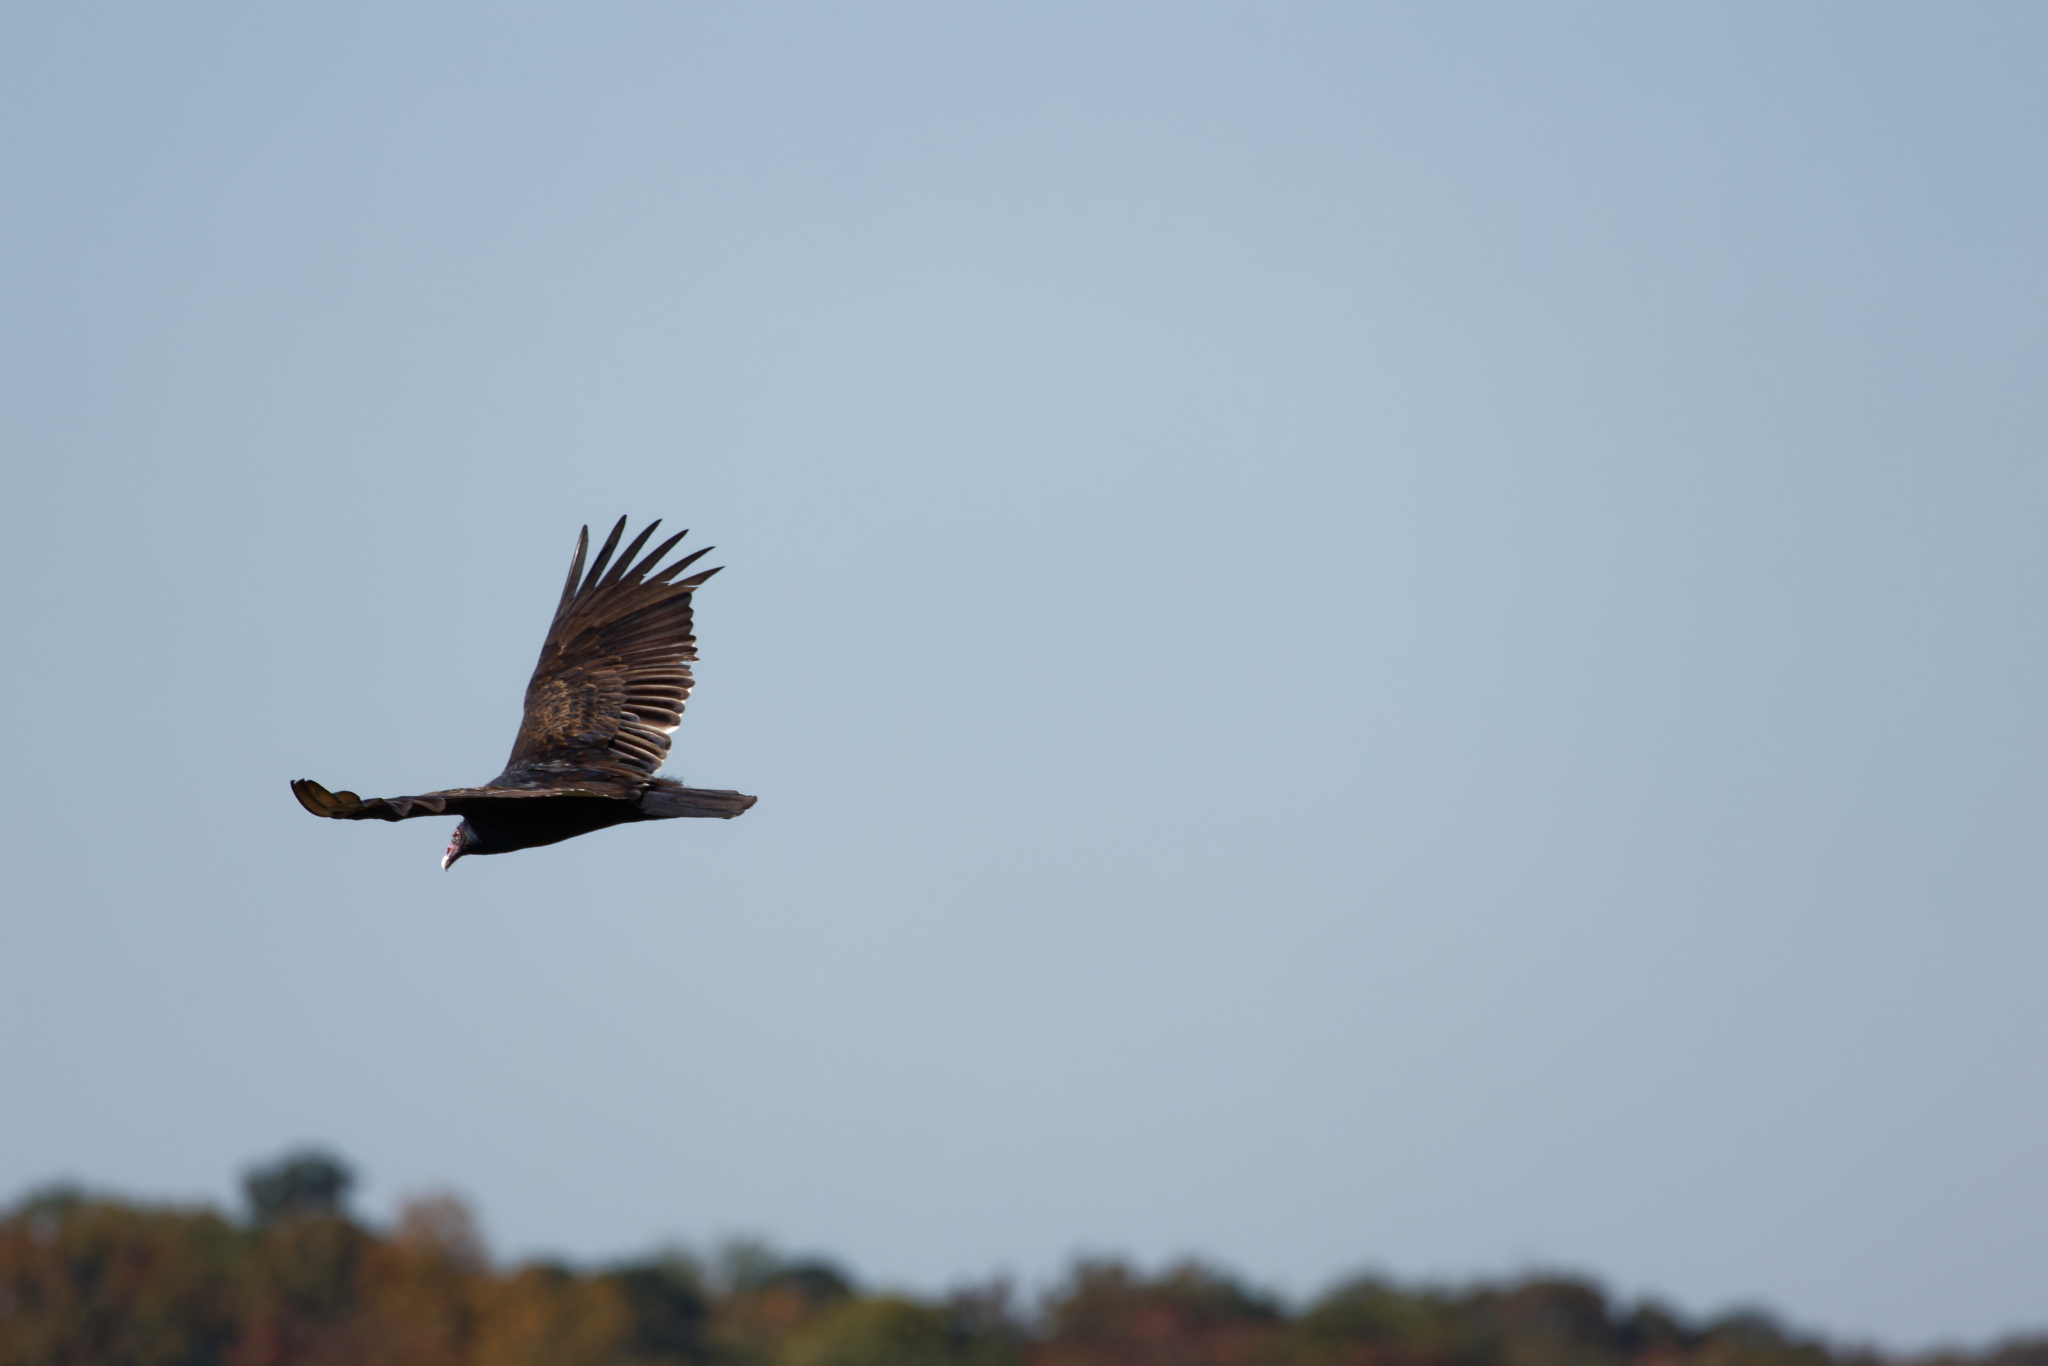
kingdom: Animalia
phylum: Chordata
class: Aves
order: Accipitriformes
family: Cathartidae
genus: Cathartes
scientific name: Cathartes aura
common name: Turkey vulture
